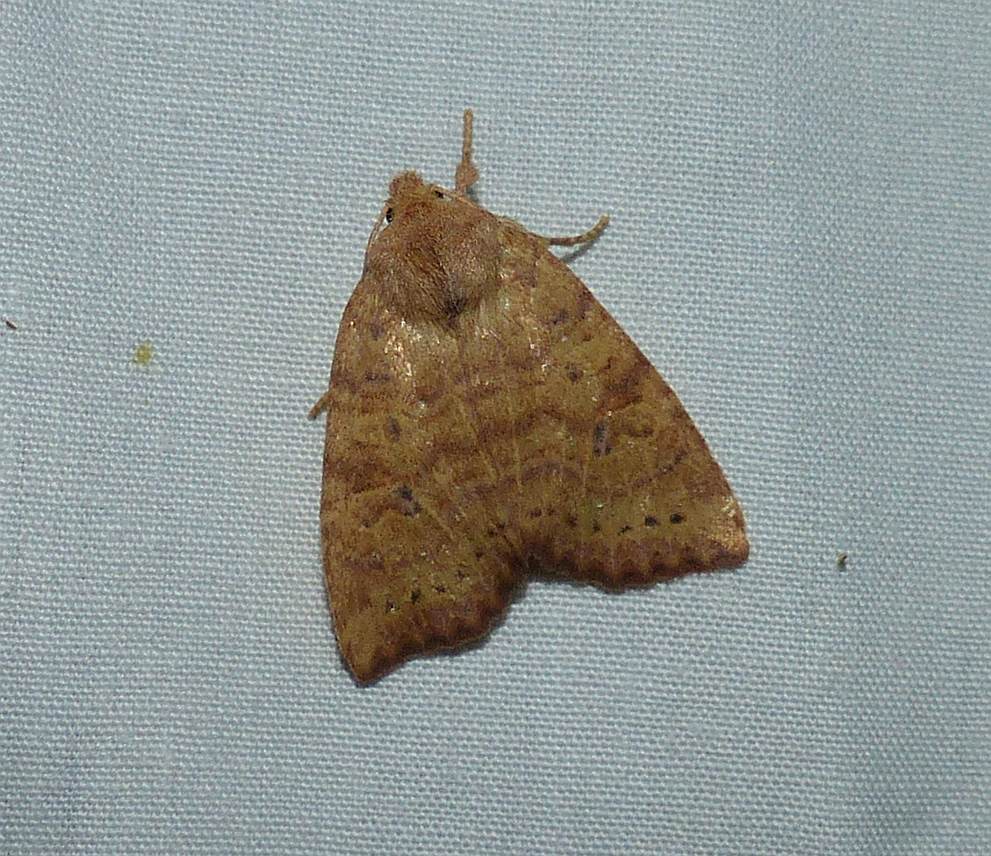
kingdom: Animalia
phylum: Arthropoda
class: Insecta
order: Lepidoptera
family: Noctuidae
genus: Anathix
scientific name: Anathix ralla
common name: Dotted sallow
